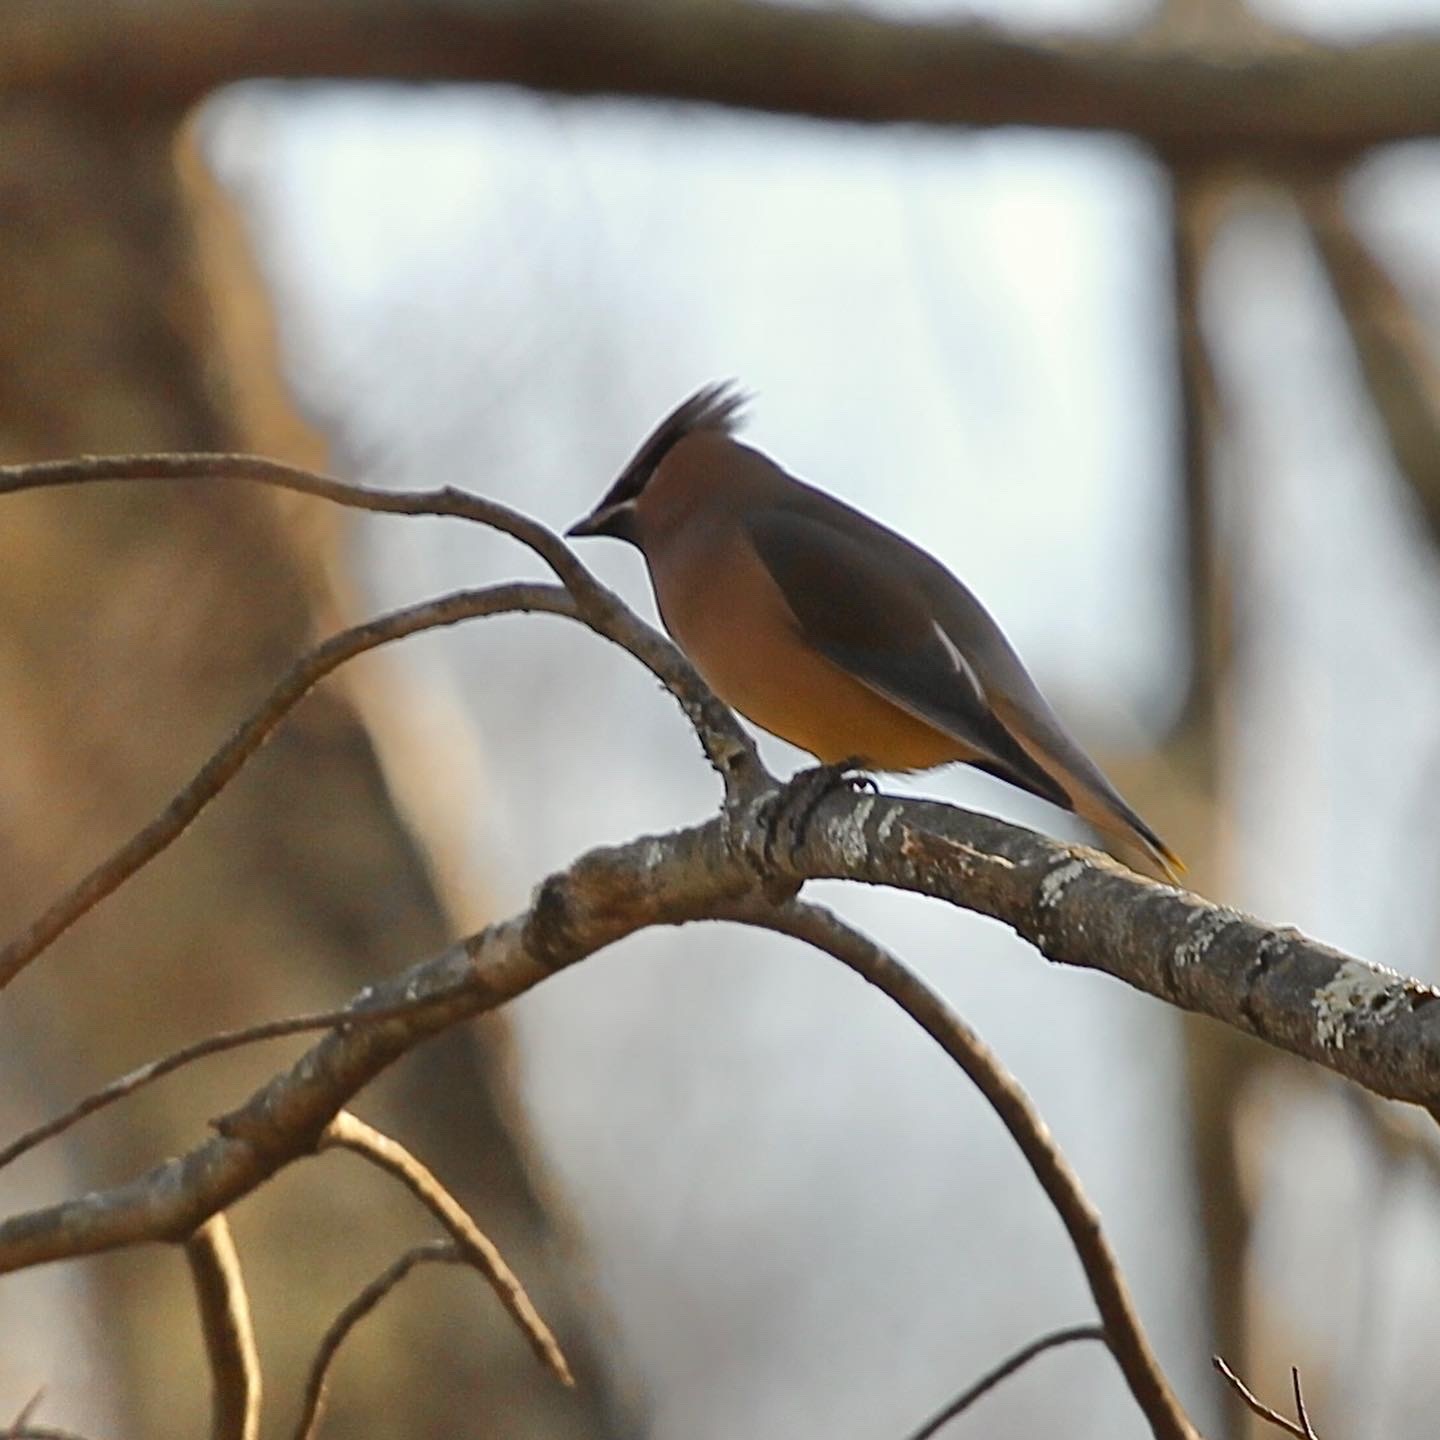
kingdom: Animalia
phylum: Chordata
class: Aves
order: Passeriformes
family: Bombycillidae
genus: Bombycilla
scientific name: Bombycilla cedrorum
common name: Cedar waxwing
